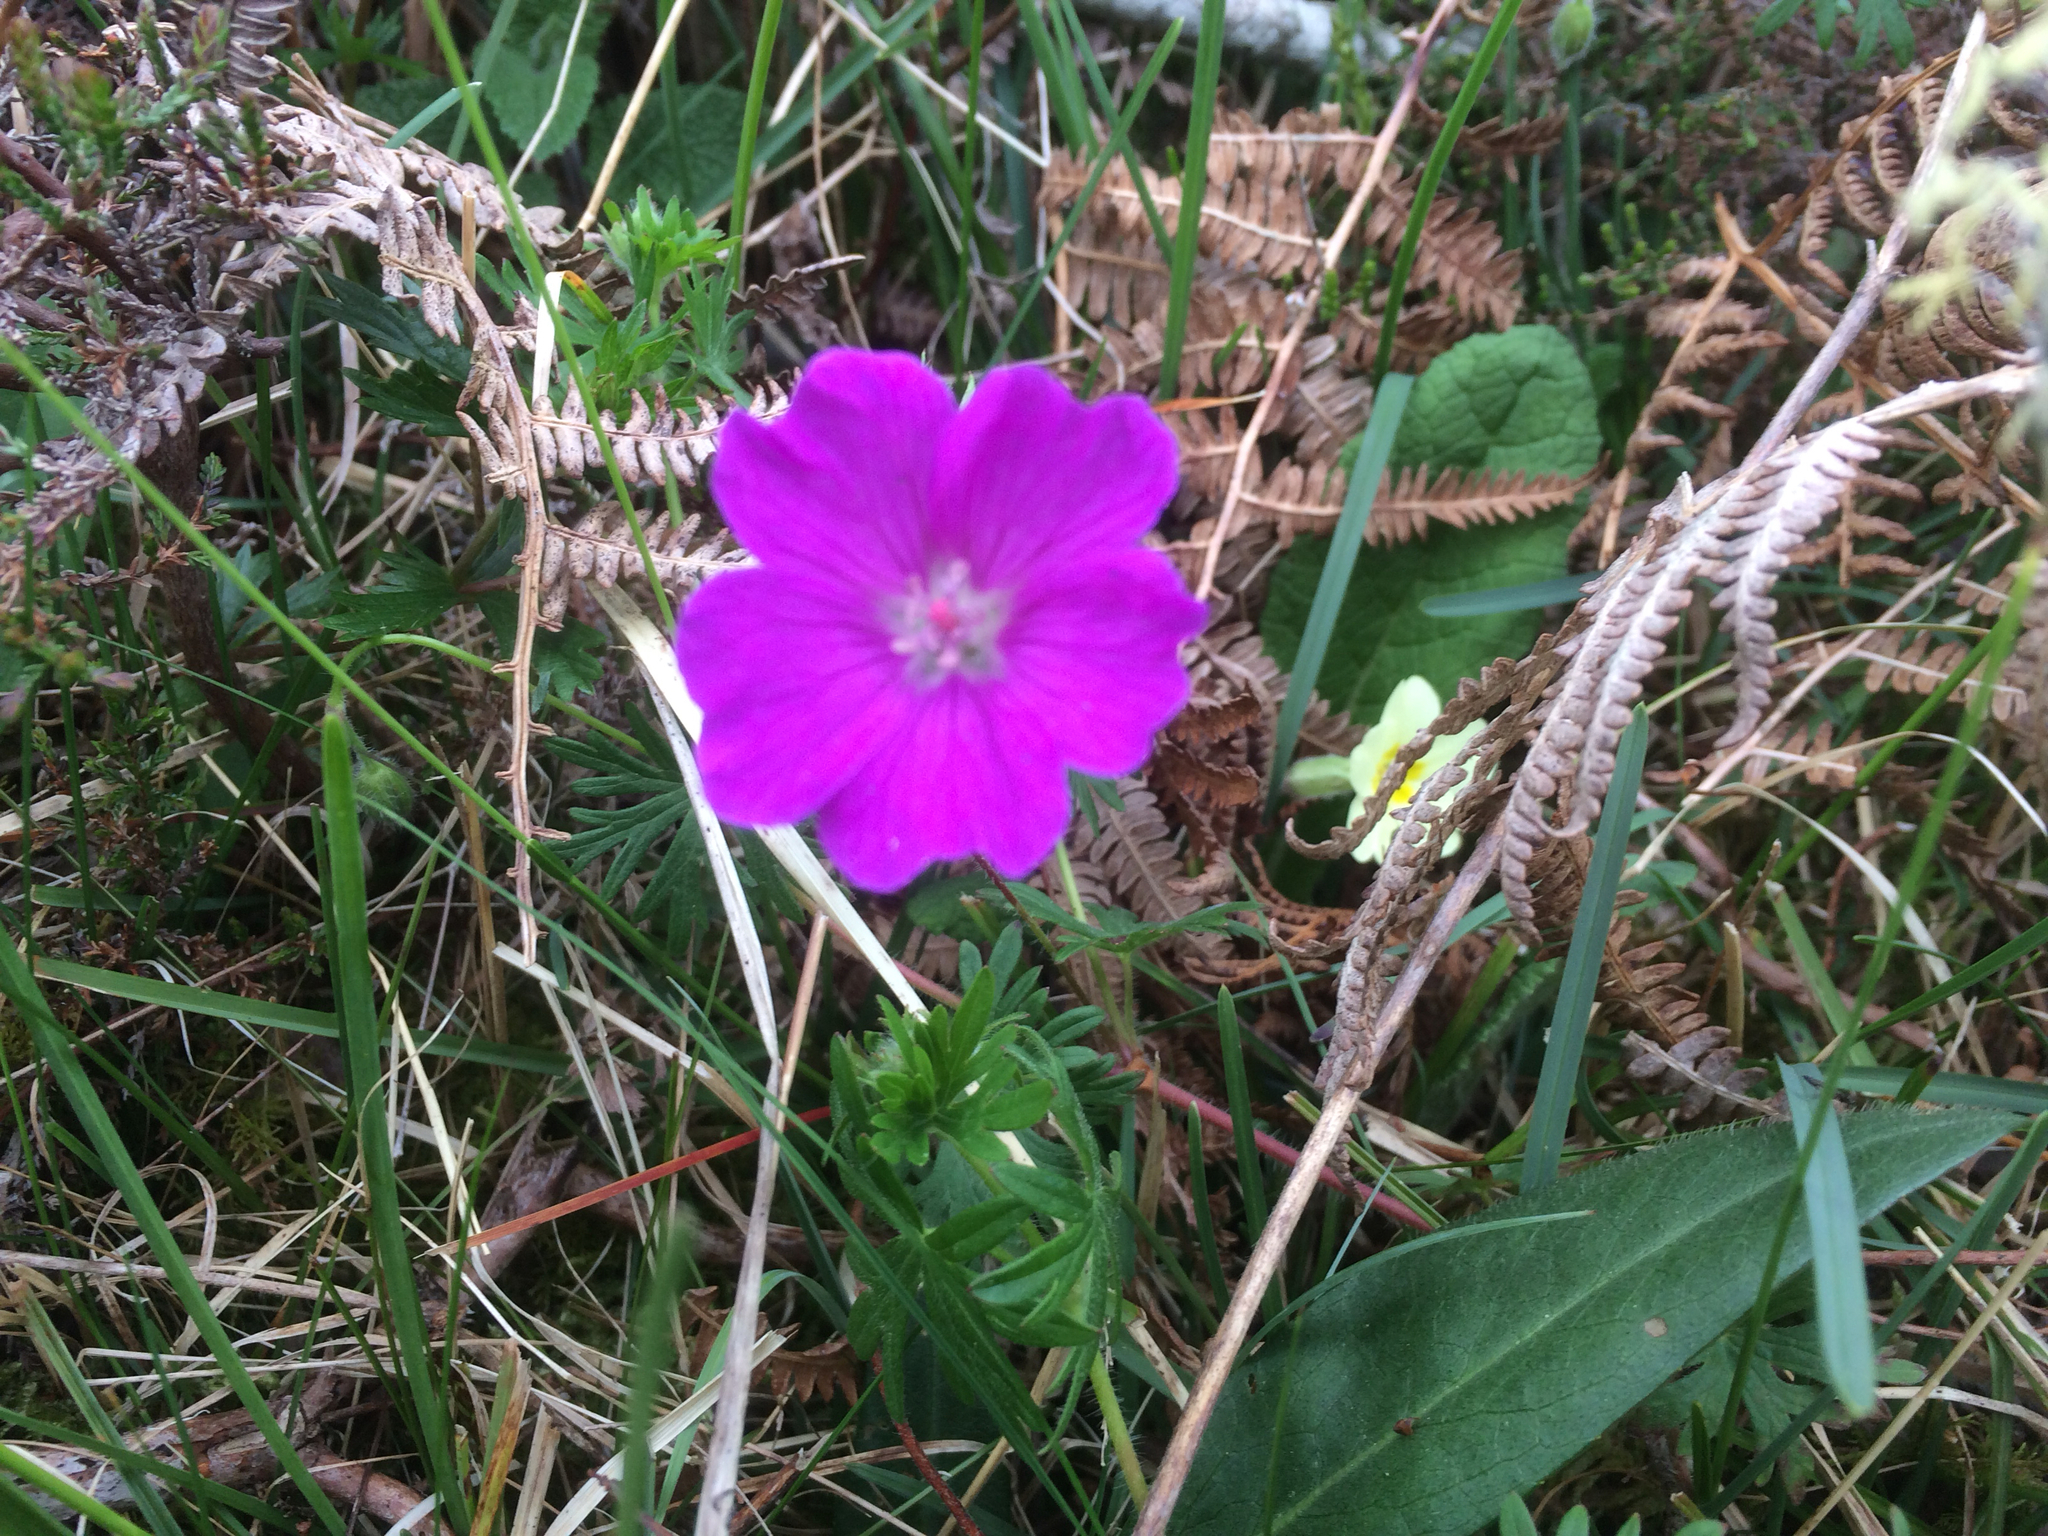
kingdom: Plantae
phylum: Tracheophyta
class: Magnoliopsida
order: Geraniales
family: Geraniaceae
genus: Geranium
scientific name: Geranium sanguineum
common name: Bloody crane's-bill
